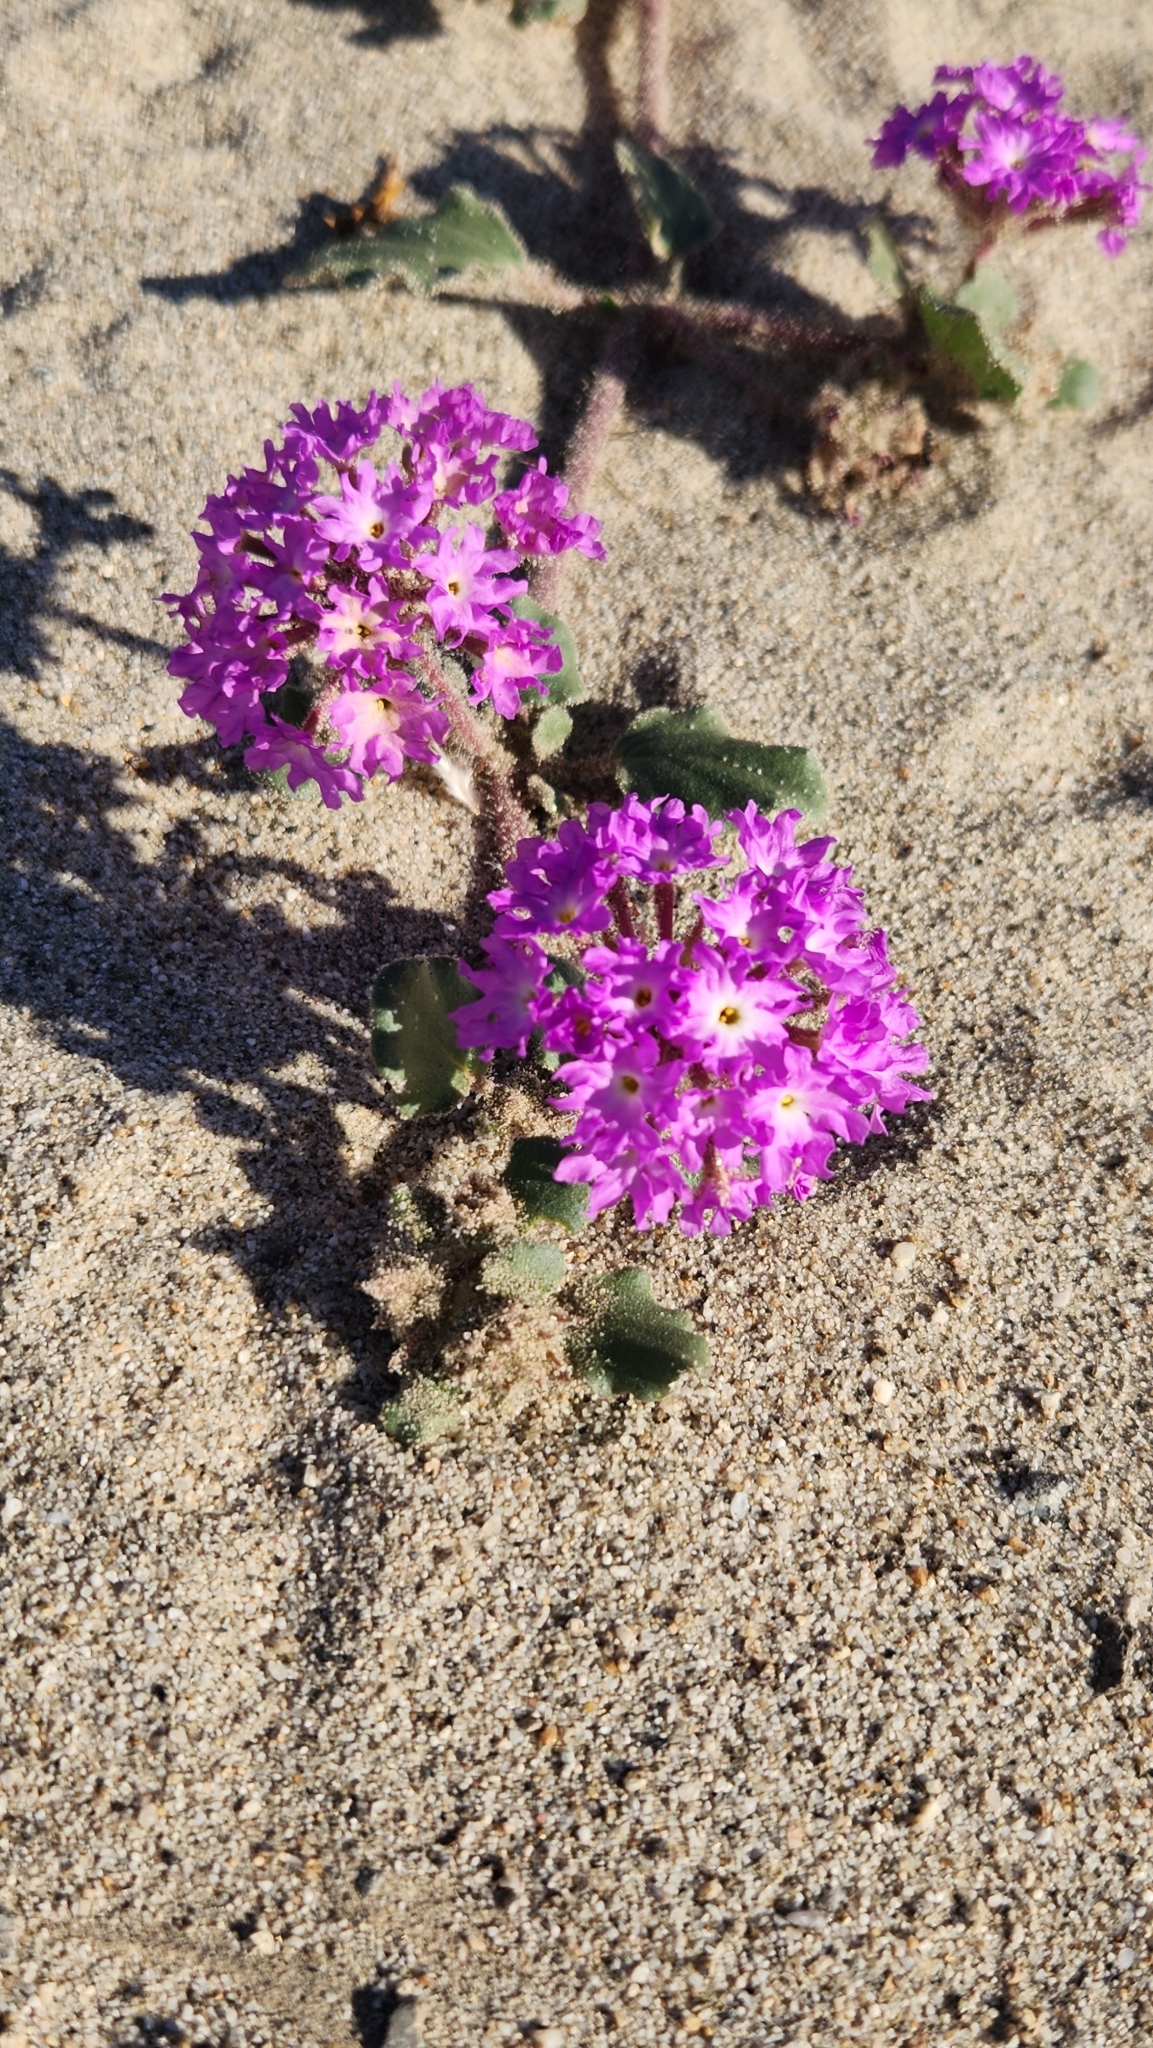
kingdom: Plantae
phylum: Tracheophyta
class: Magnoliopsida
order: Caryophyllales
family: Nyctaginaceae
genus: Abronia
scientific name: Abronia villosa
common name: Desert sand-verbena
